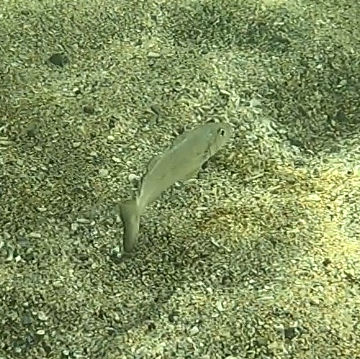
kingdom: Animalia
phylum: Chordata
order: Perciformes
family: Sillaginidae
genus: Sillago
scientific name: Sillago ciliata
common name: Sand sillago
